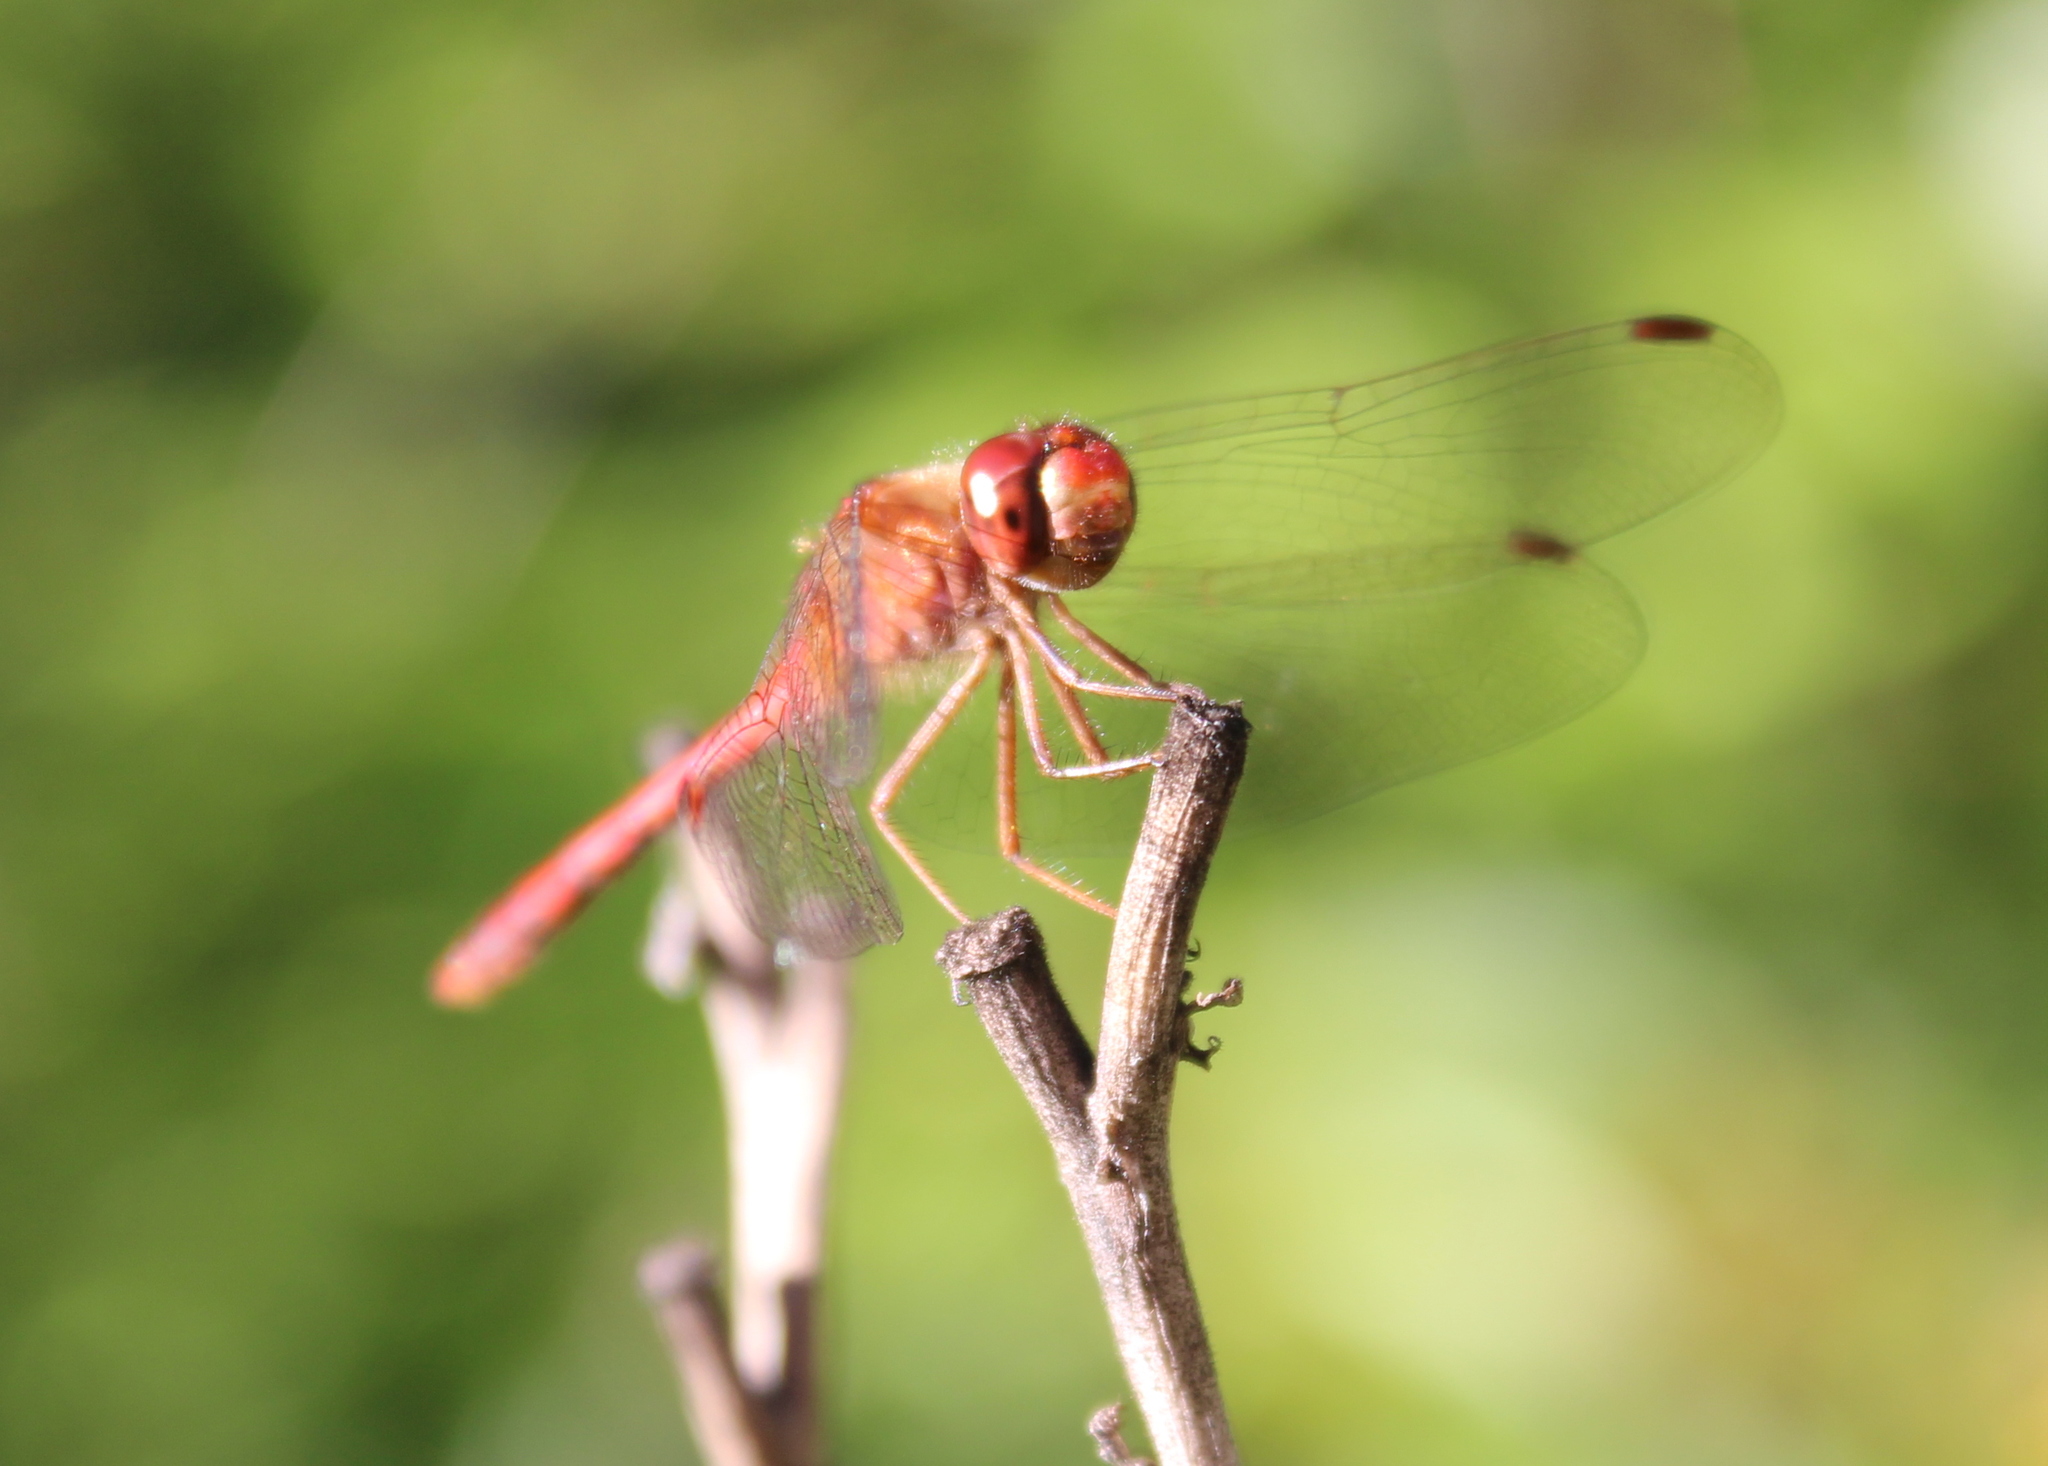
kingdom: Animalia
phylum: Arthropoda
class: Insecta
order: Odonata
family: Libellulidae
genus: Sympetrum
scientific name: Sympetrum vicinum
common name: Autumn meadowhawk
